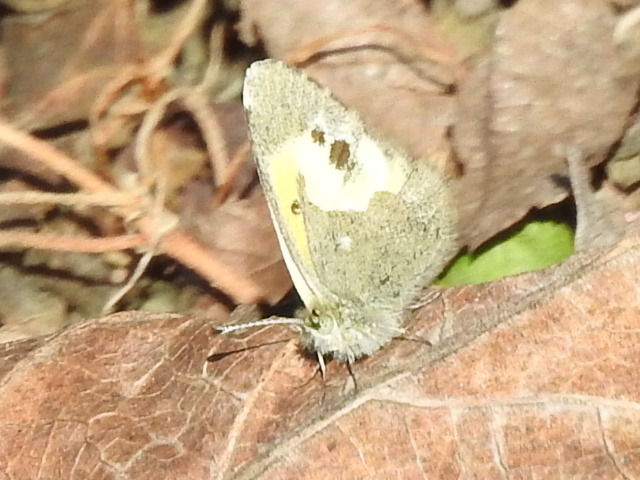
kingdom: Animalia
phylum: Arthropoda
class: Insecta
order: Lepidoptera
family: Pieridae
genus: Nathalis
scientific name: Nathalis iole
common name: Dainty sulphur
